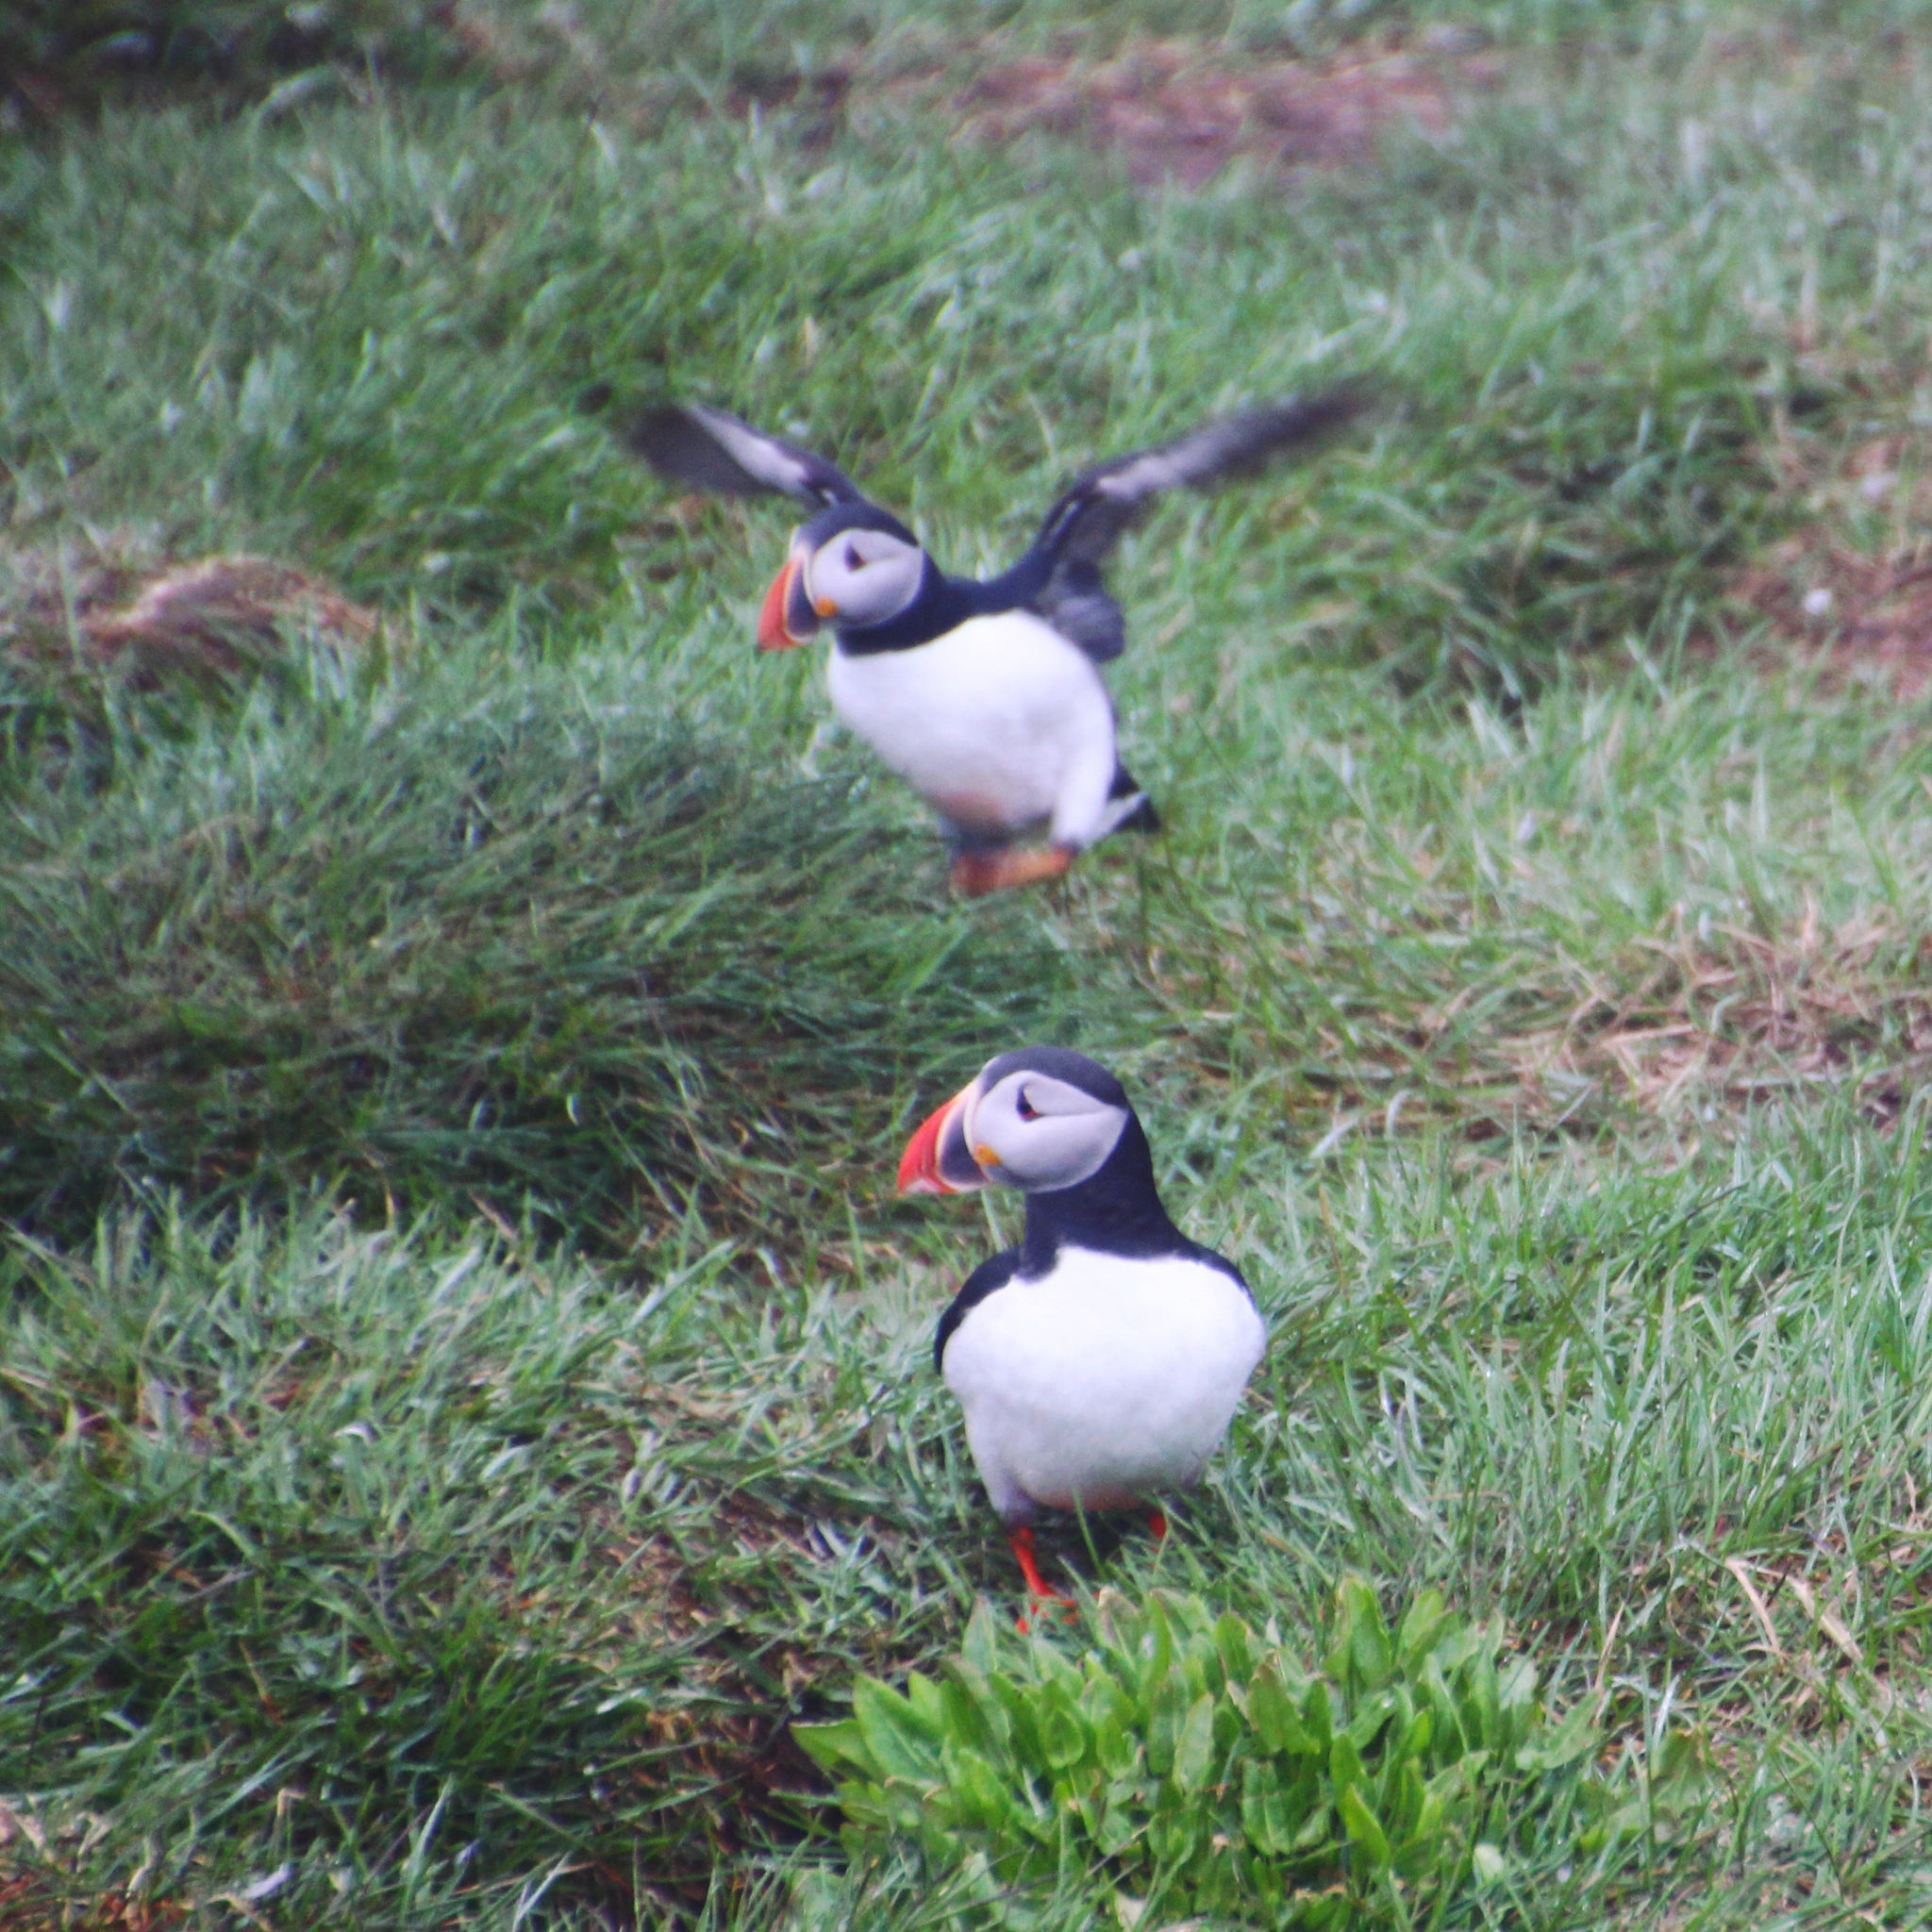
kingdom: Animalia
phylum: Chordata
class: Aves
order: Charadriiformes
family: Alcidae
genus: Fratercula
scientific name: Fratercula arctica
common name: Atlantic puffin
